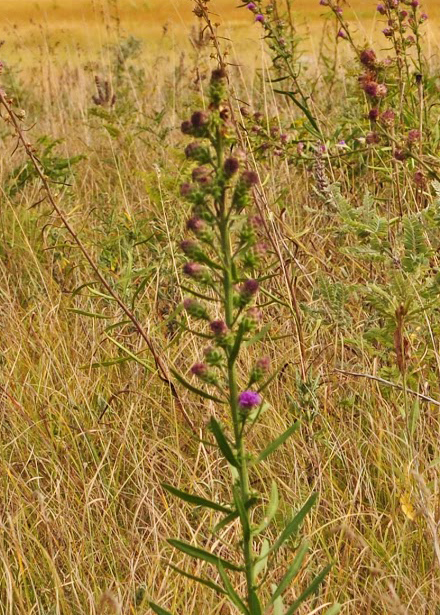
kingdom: Plantae
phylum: Tracheophyta
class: Magnoliopsida
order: Asterales
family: Asteraceae
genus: Liatris
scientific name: Liatris ligulistylis
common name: Northern plains gayfeather
